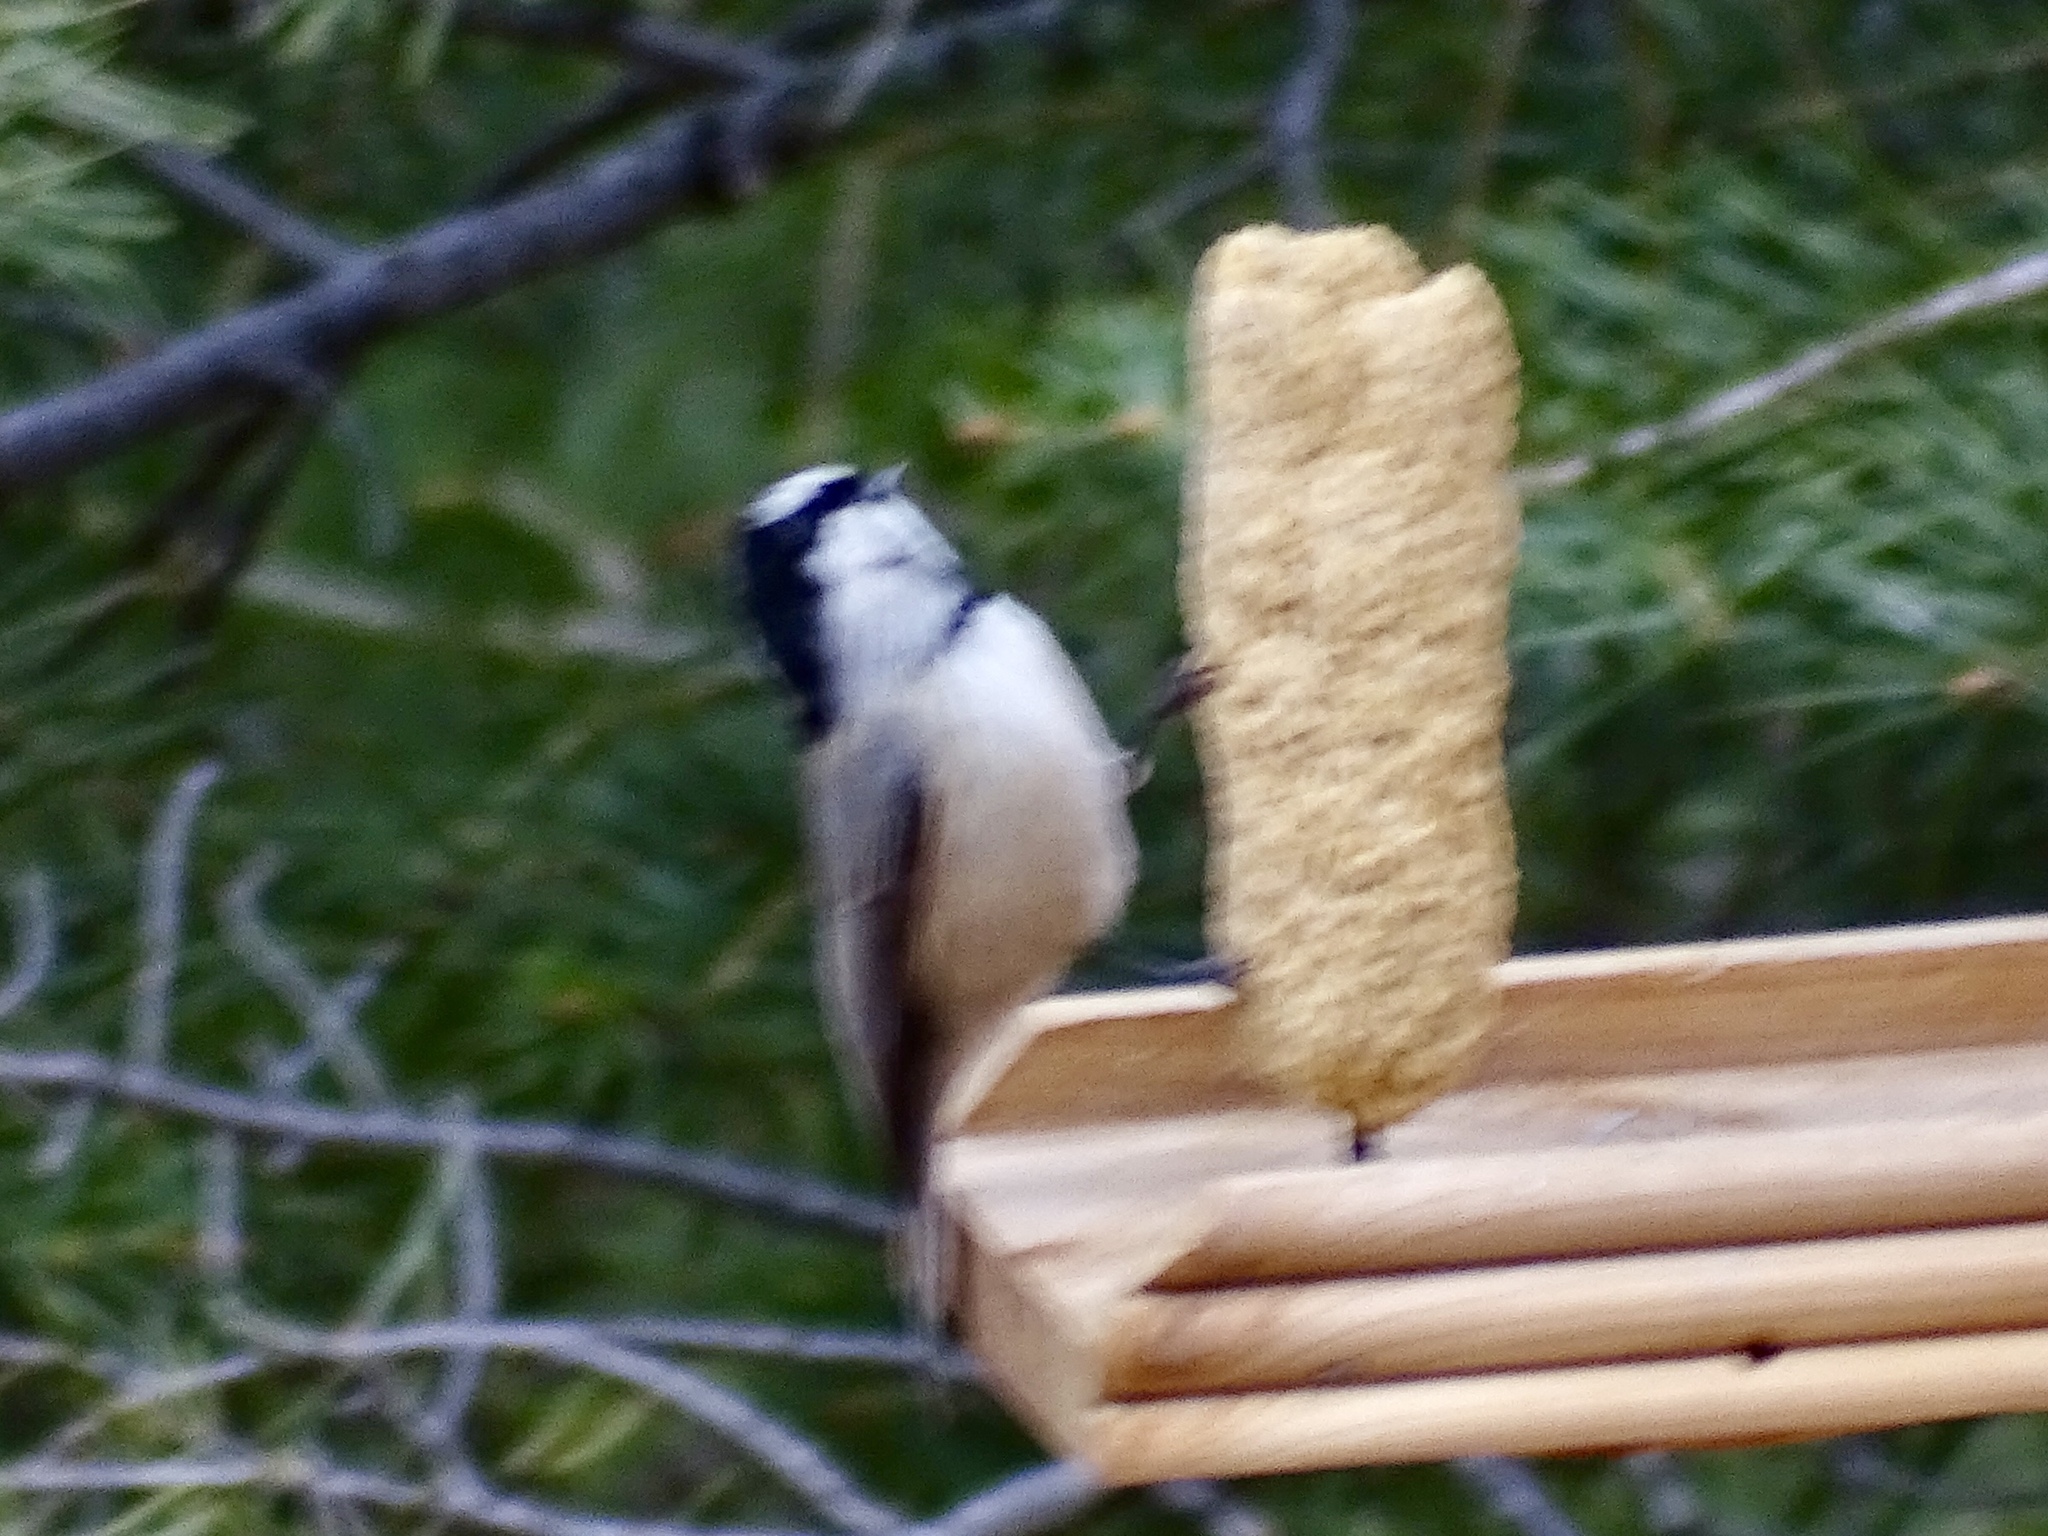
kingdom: Animalia
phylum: Chordata
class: Aves
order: Passeriformes
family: Paridae
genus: Poecile
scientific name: Poecile gambeli
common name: Mountain chickadee
